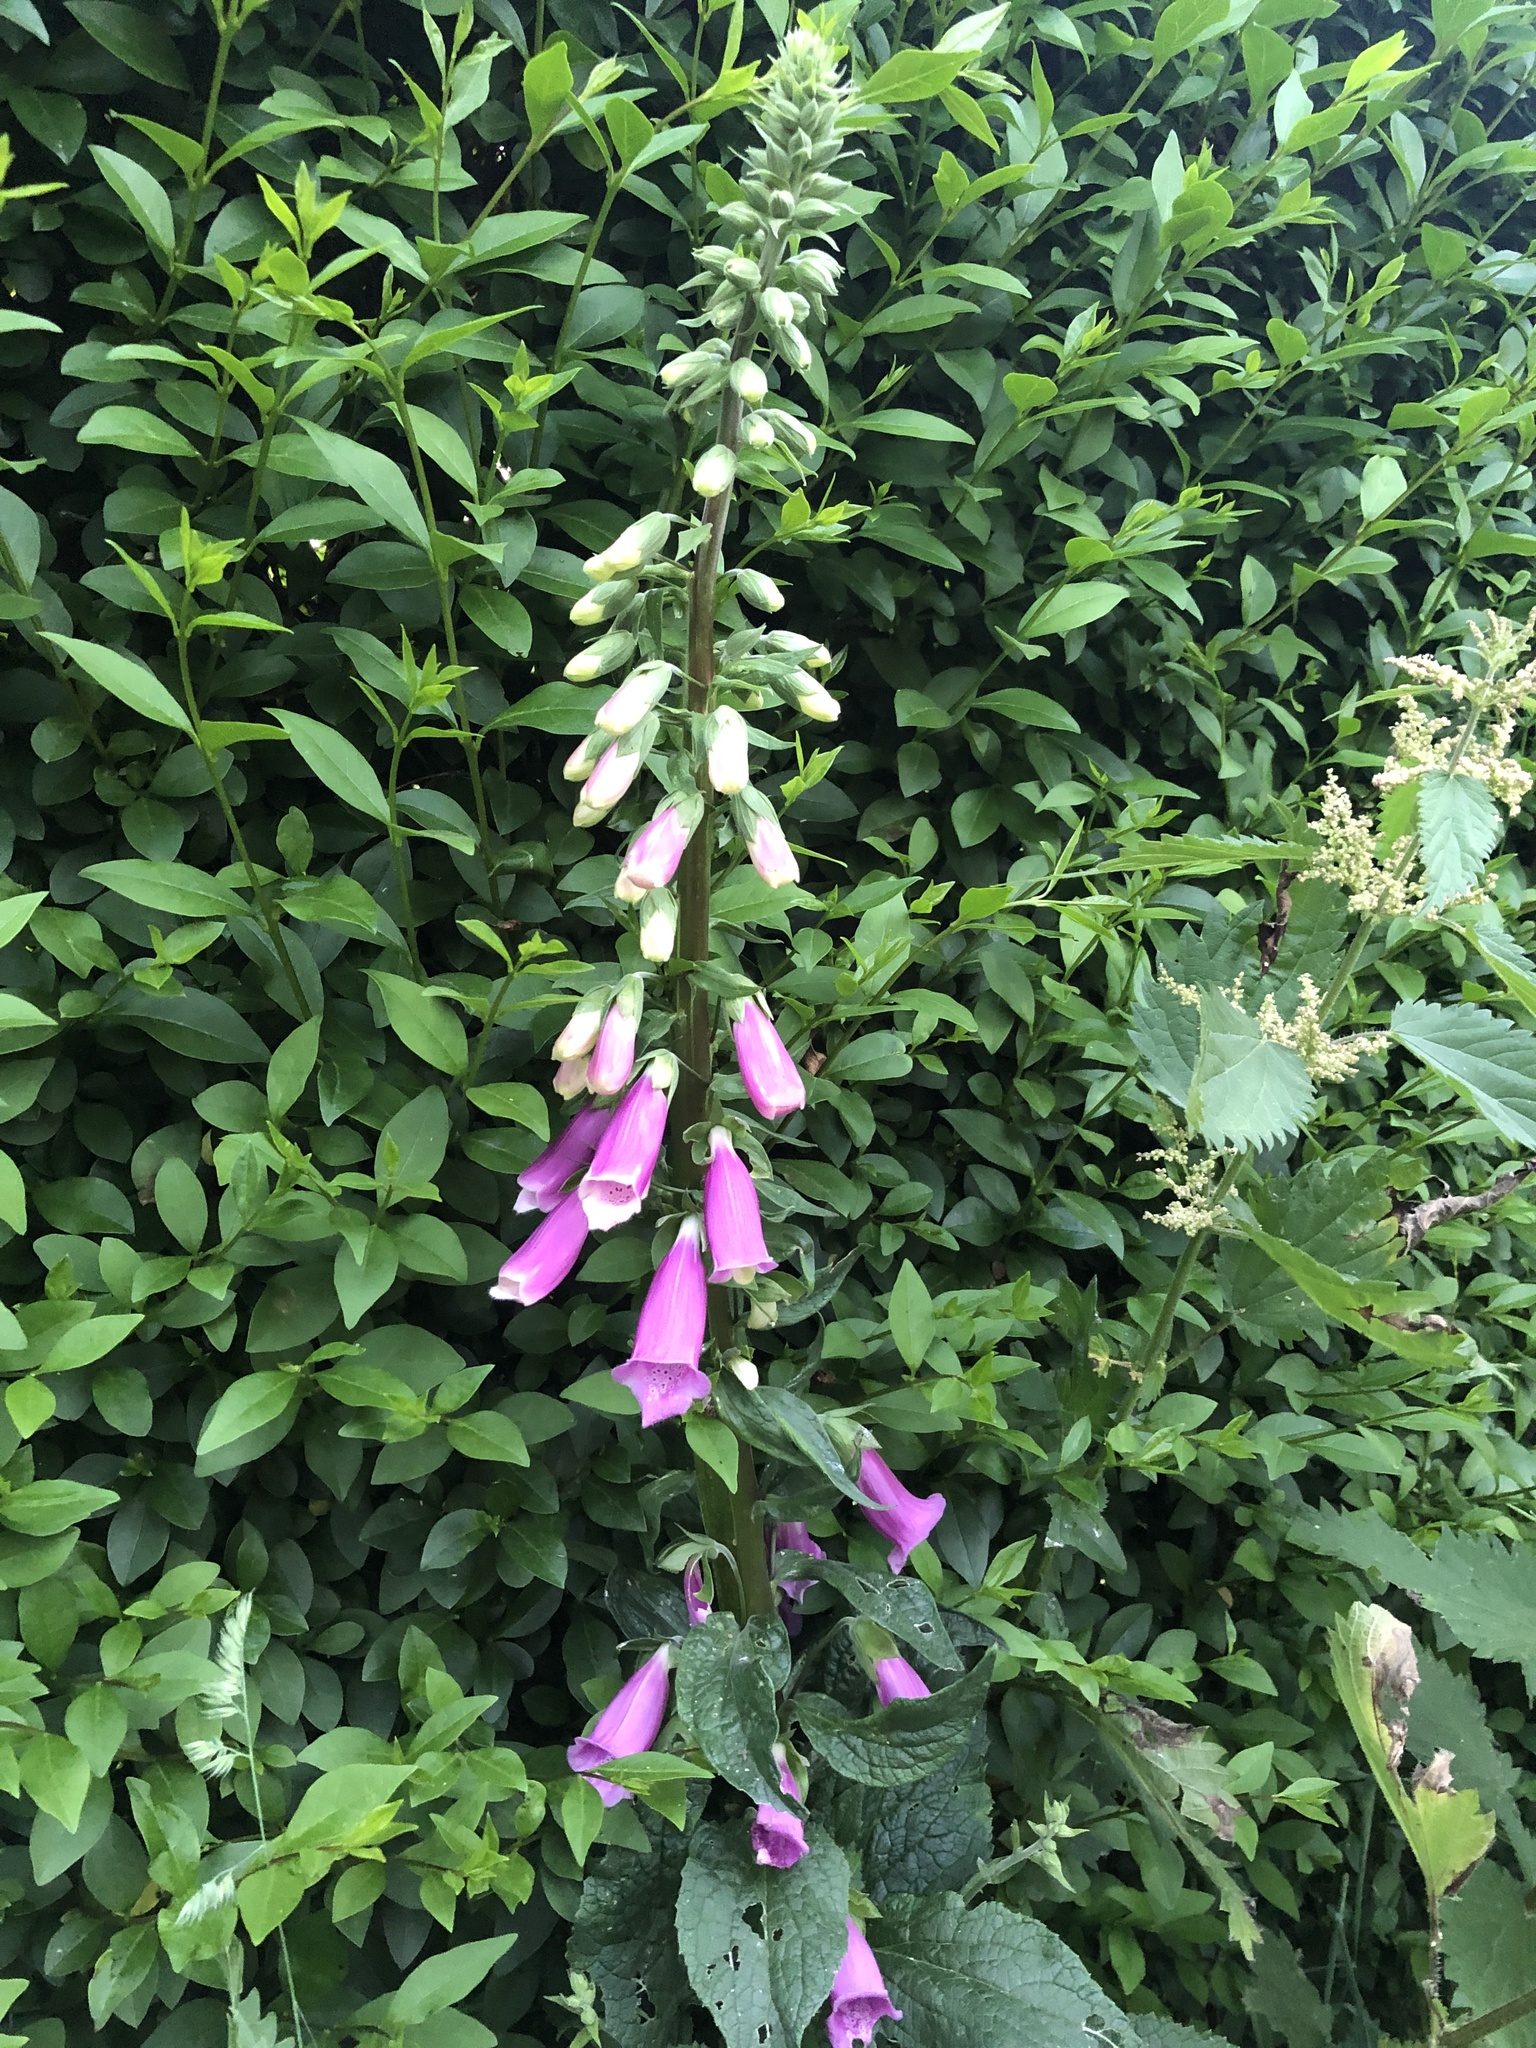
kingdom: Plantae
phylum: Tracheophyta
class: Magnoliopsida
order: Lamiales
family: Plantaginaceae
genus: Digitalis
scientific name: Digitalis purpurea
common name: Foxglove
